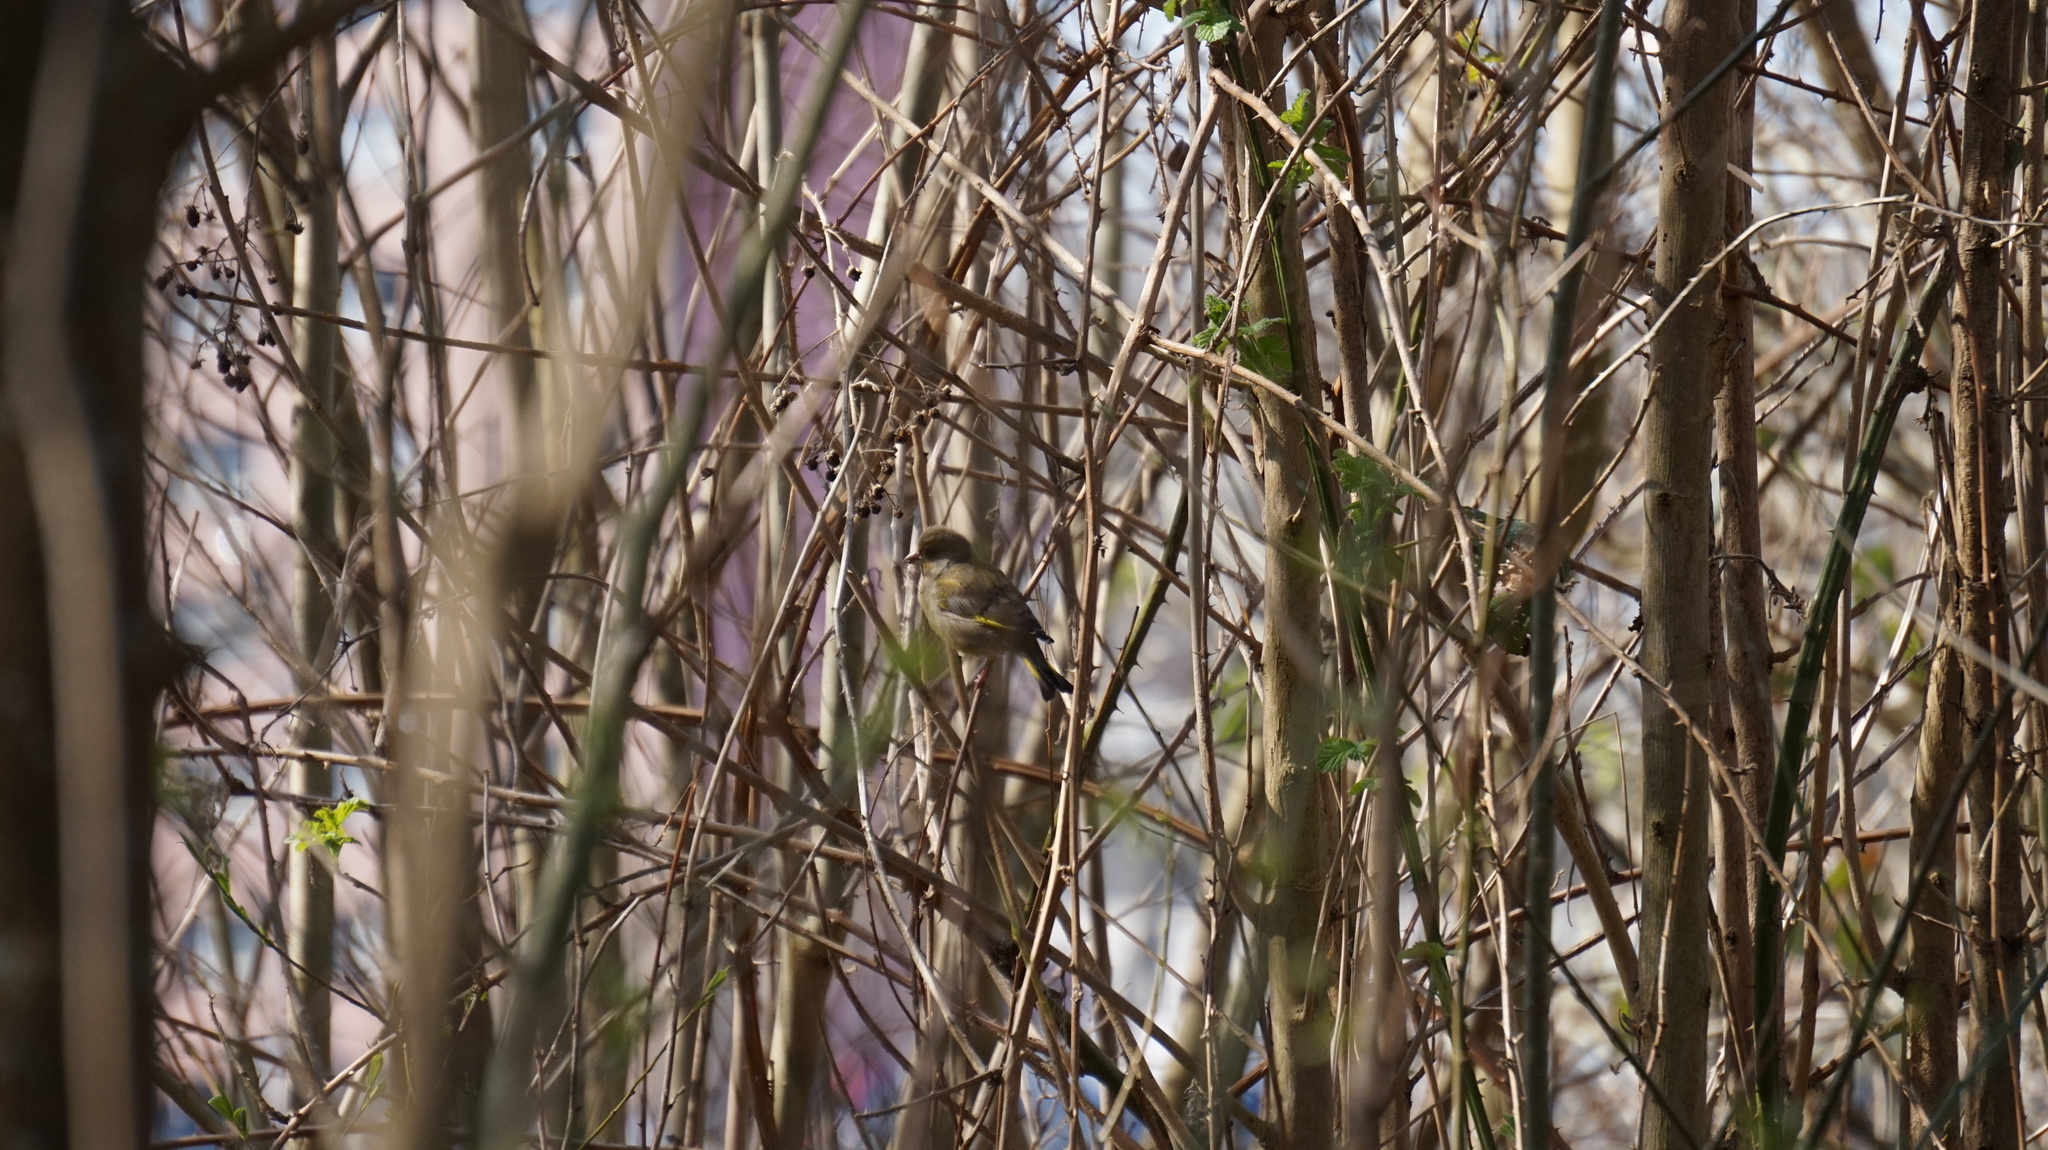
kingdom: Plantae
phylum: Tracheophyta
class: Liliopsida
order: Poales
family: Poaceae
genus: Chloris
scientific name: Chloris chloris
